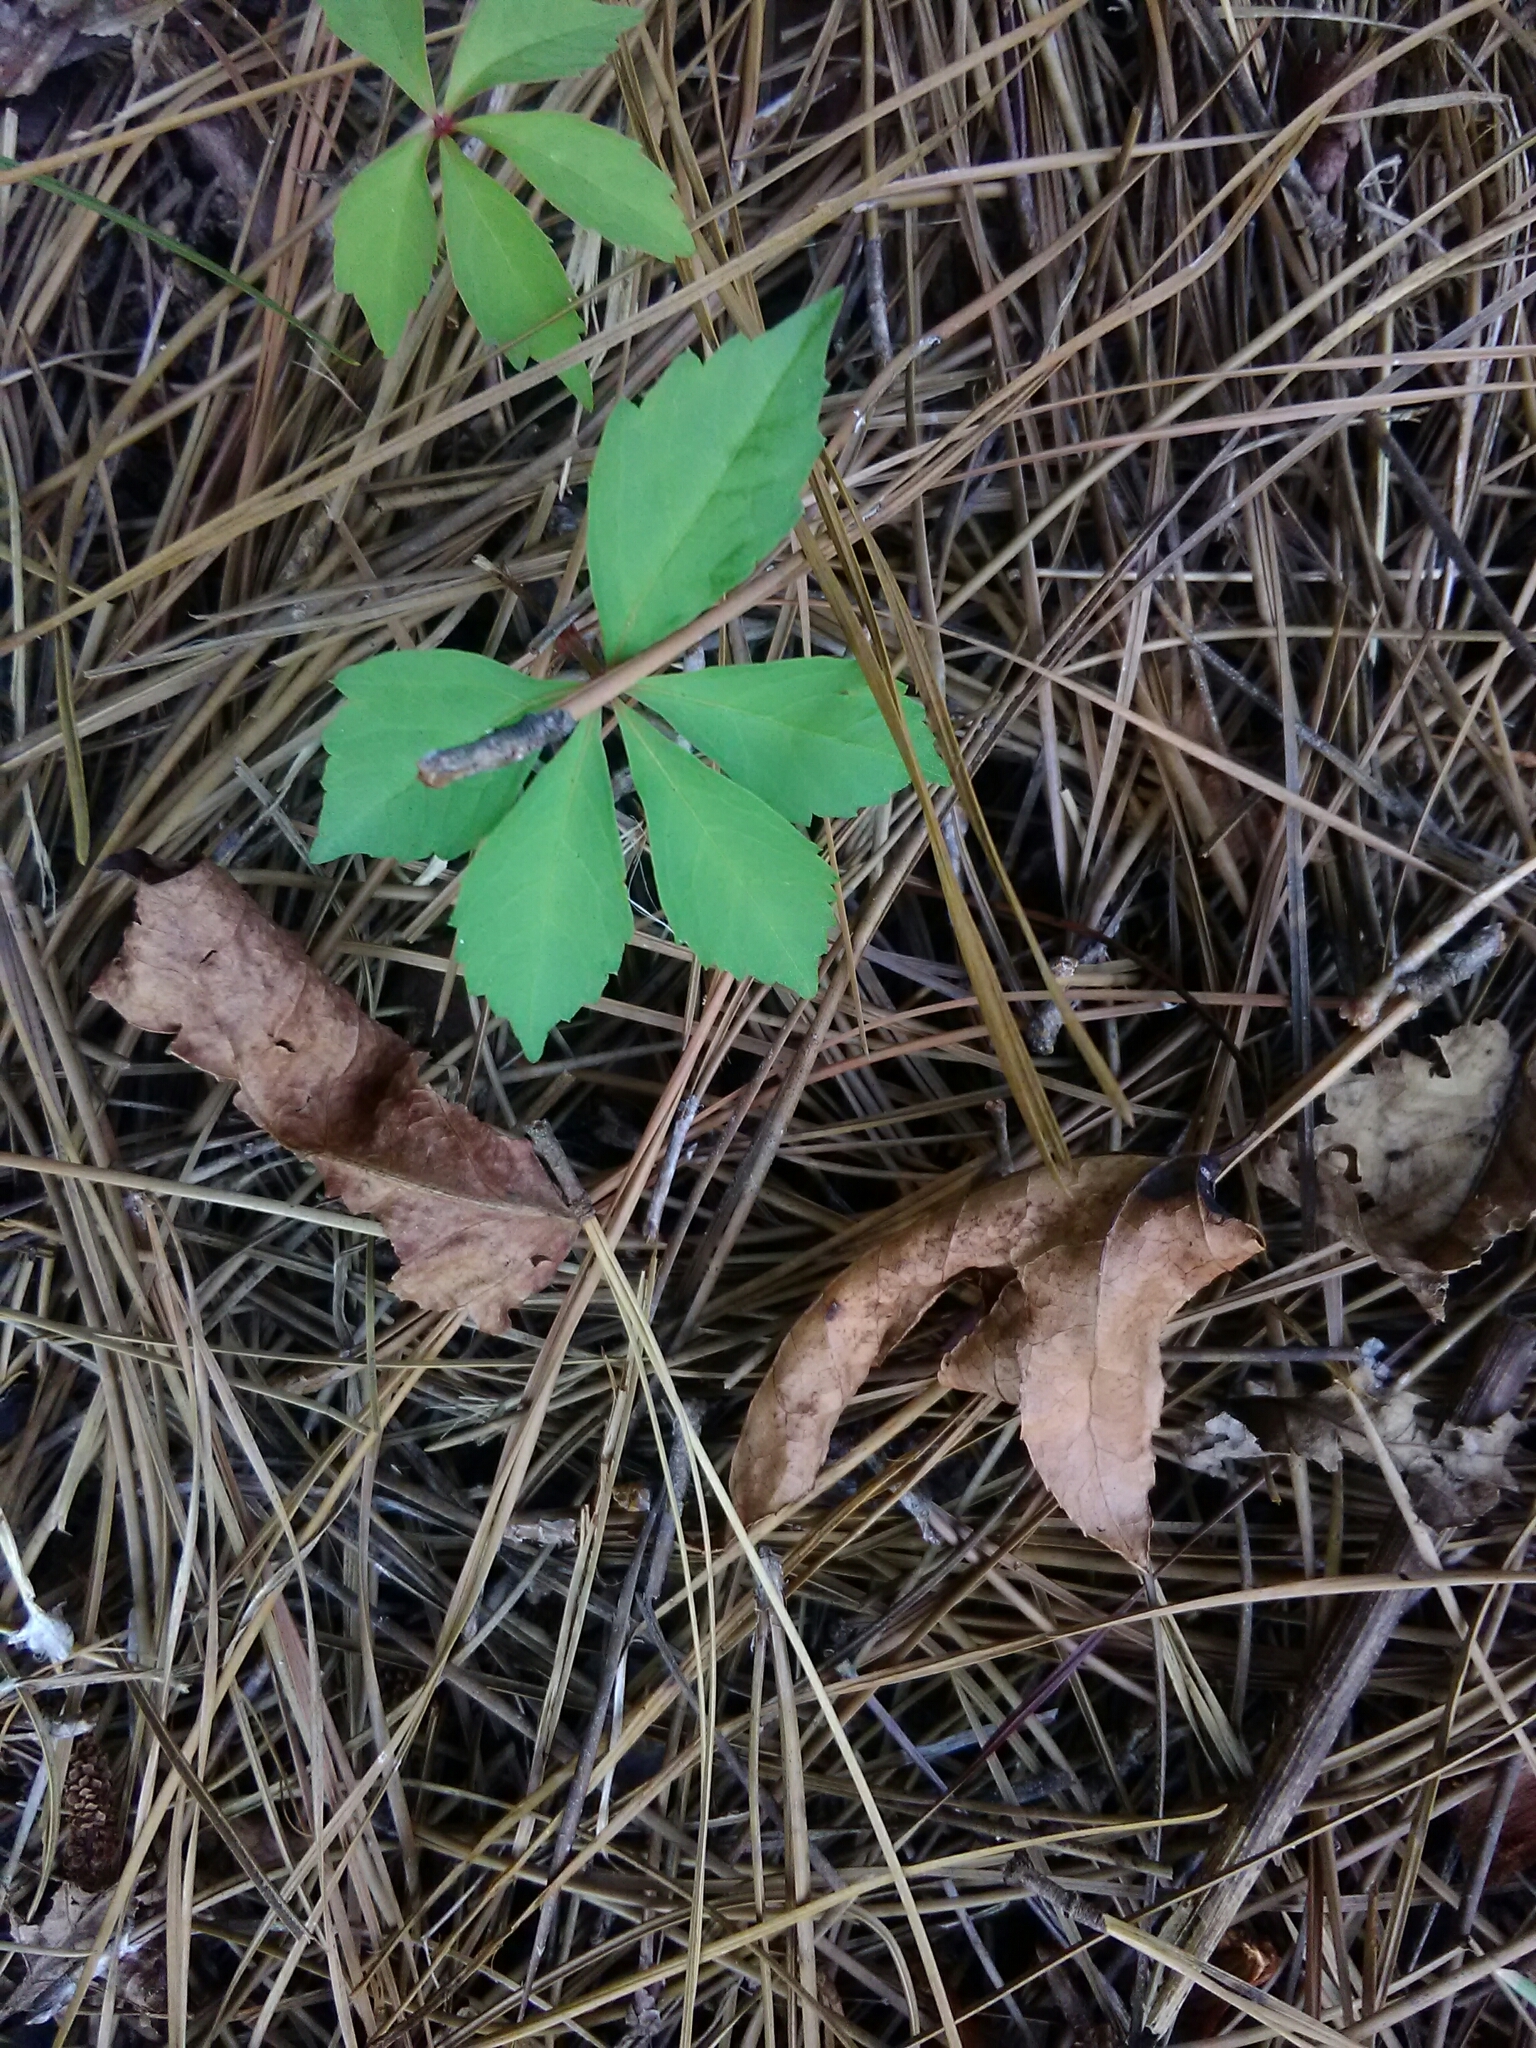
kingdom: Plantae
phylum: Tracheophyta
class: Magnoliopsida
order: Vitales
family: Vitaceae
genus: Parthenocissus
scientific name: Parthenocissus quinquefolia
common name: Virginia-creeper
